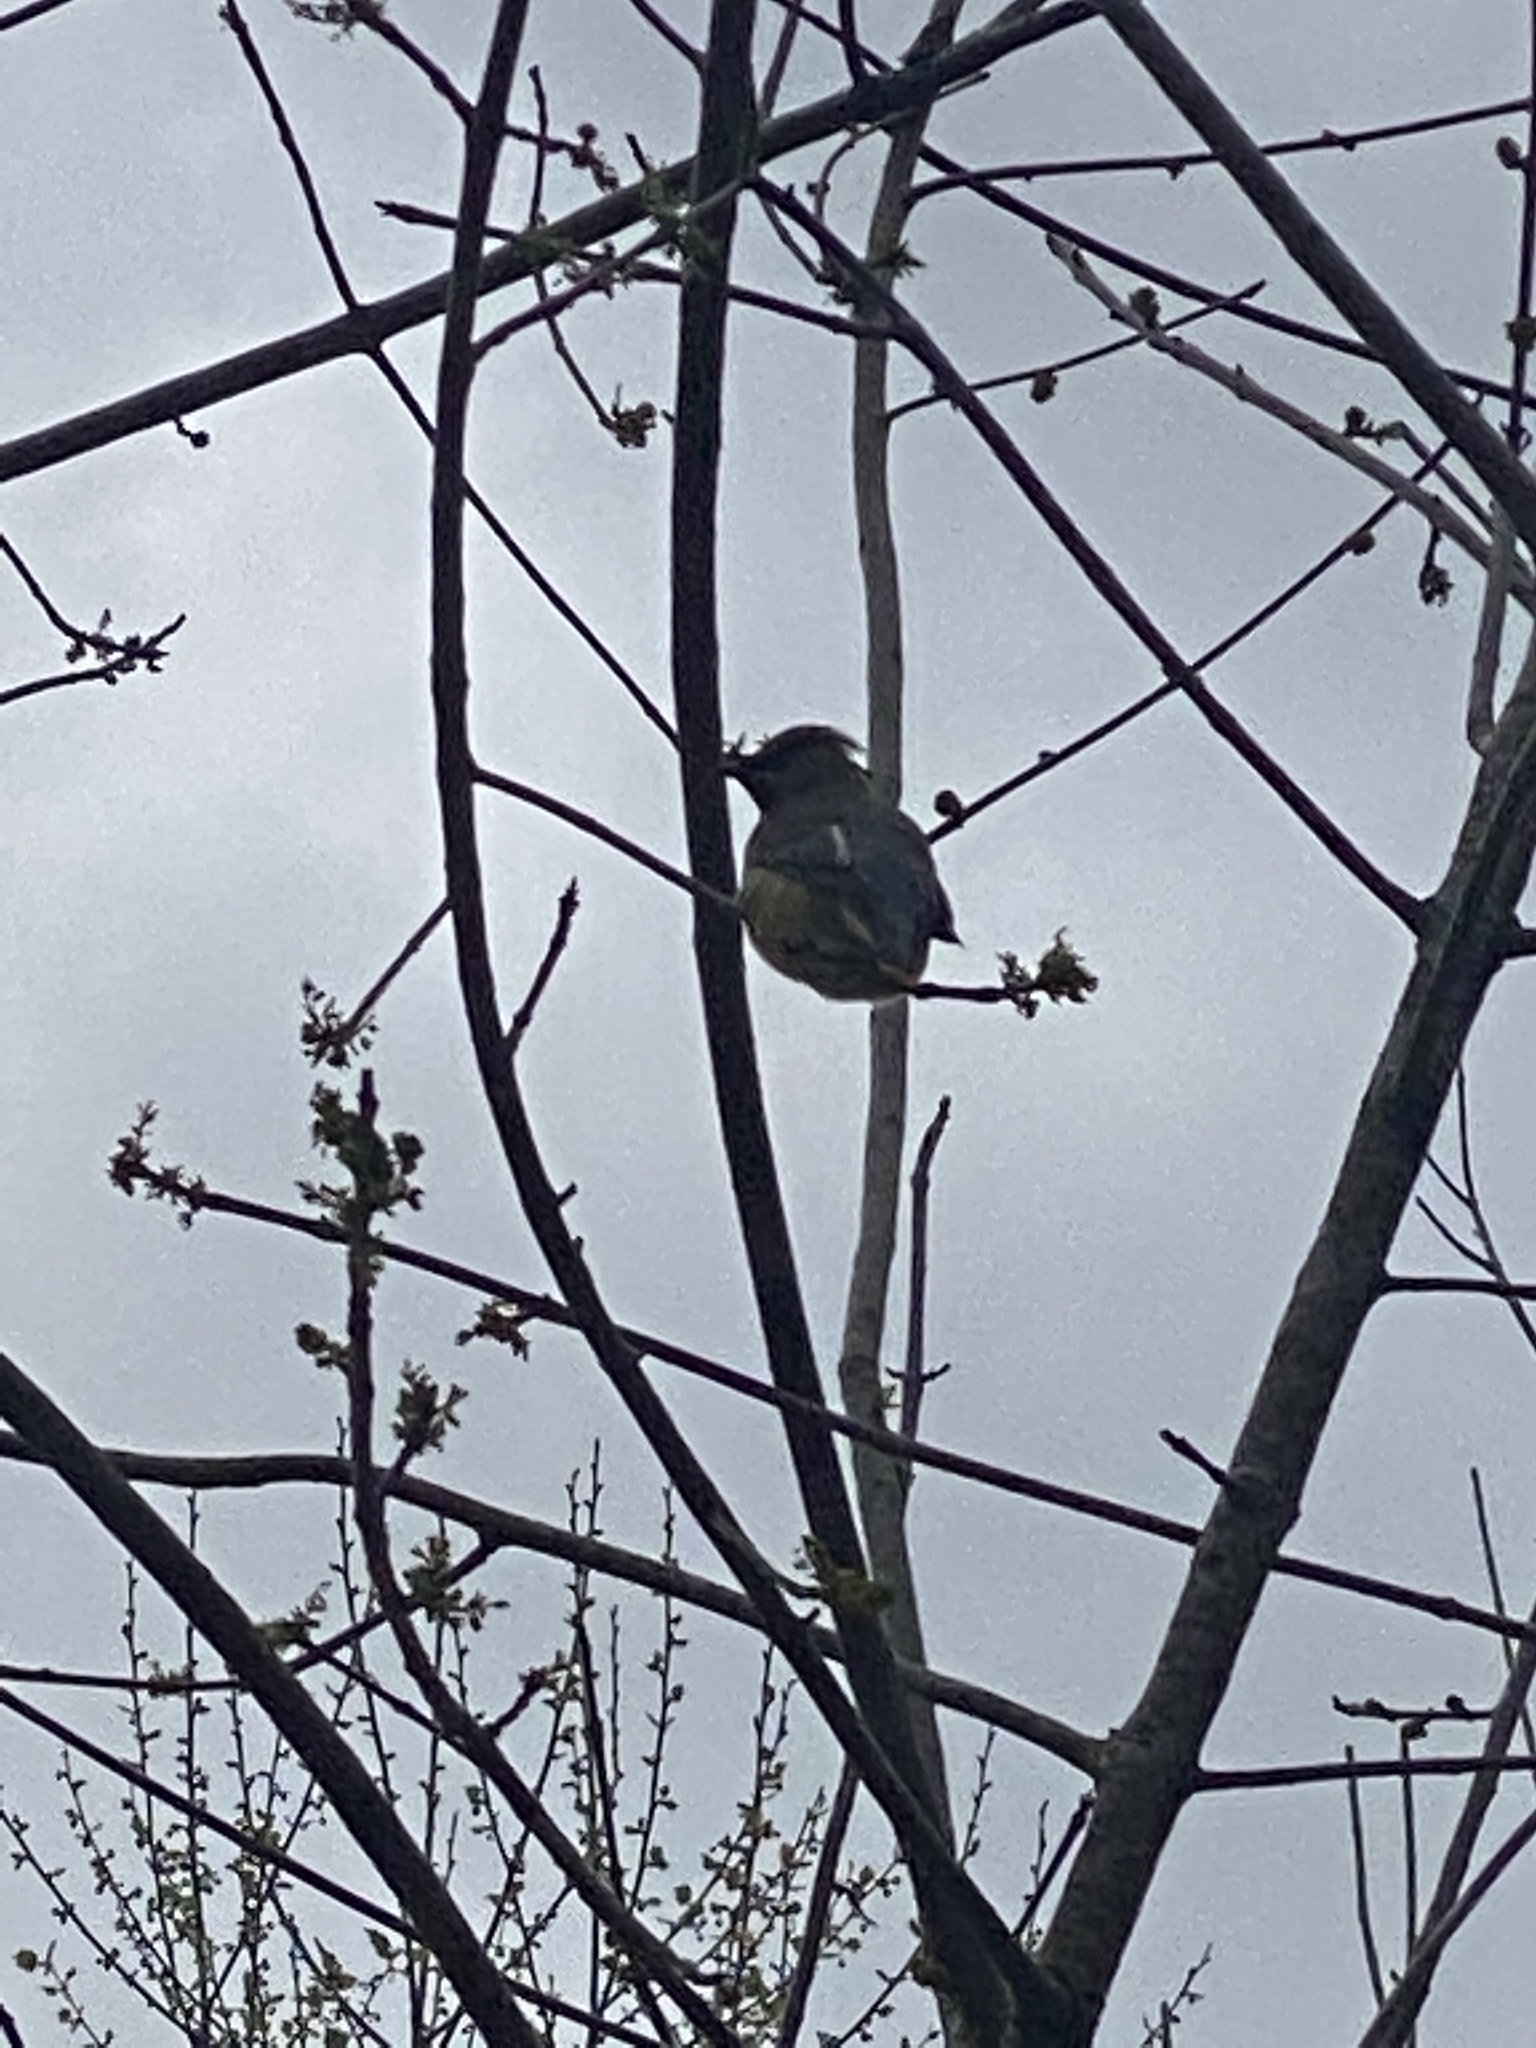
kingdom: Animalia
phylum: Chordata
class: Aves
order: Passeriformes
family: Bombycillidae
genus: Bombycilla
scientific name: Bombycilla cedrorum
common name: Cedar waxwing
